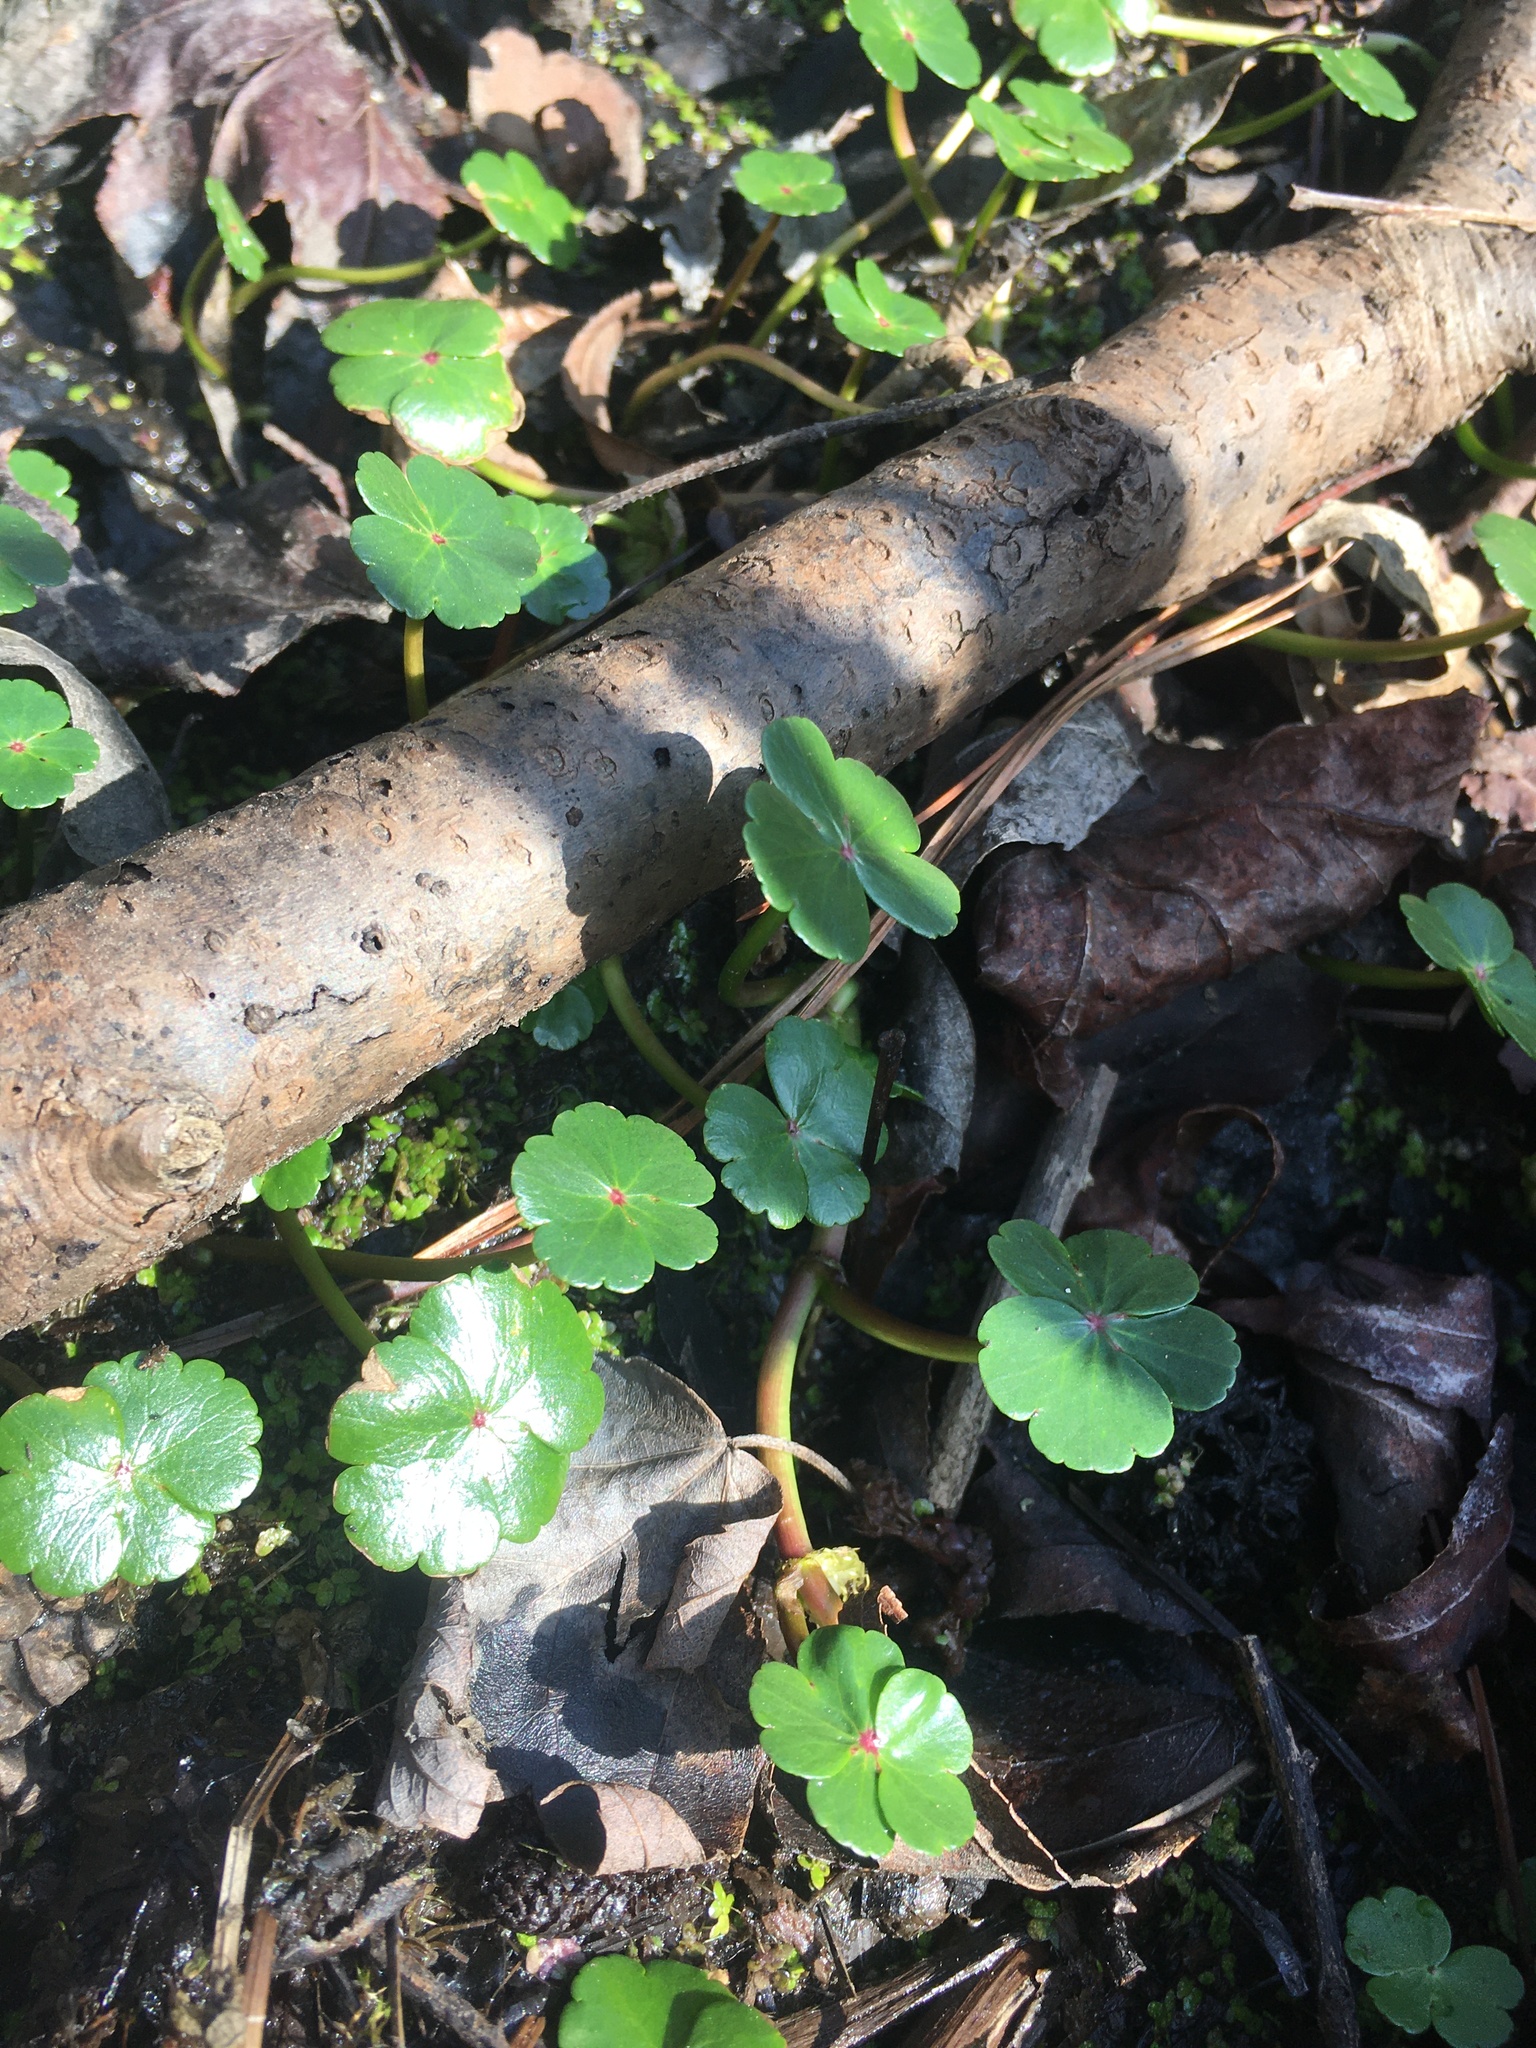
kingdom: Plantae
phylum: Tracheophyta
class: Magnoliopsida
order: Apiales
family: Araliaceae
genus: Hydrocotyle
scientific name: Hydrocotyle ranunculoides
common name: Floating pennywort
